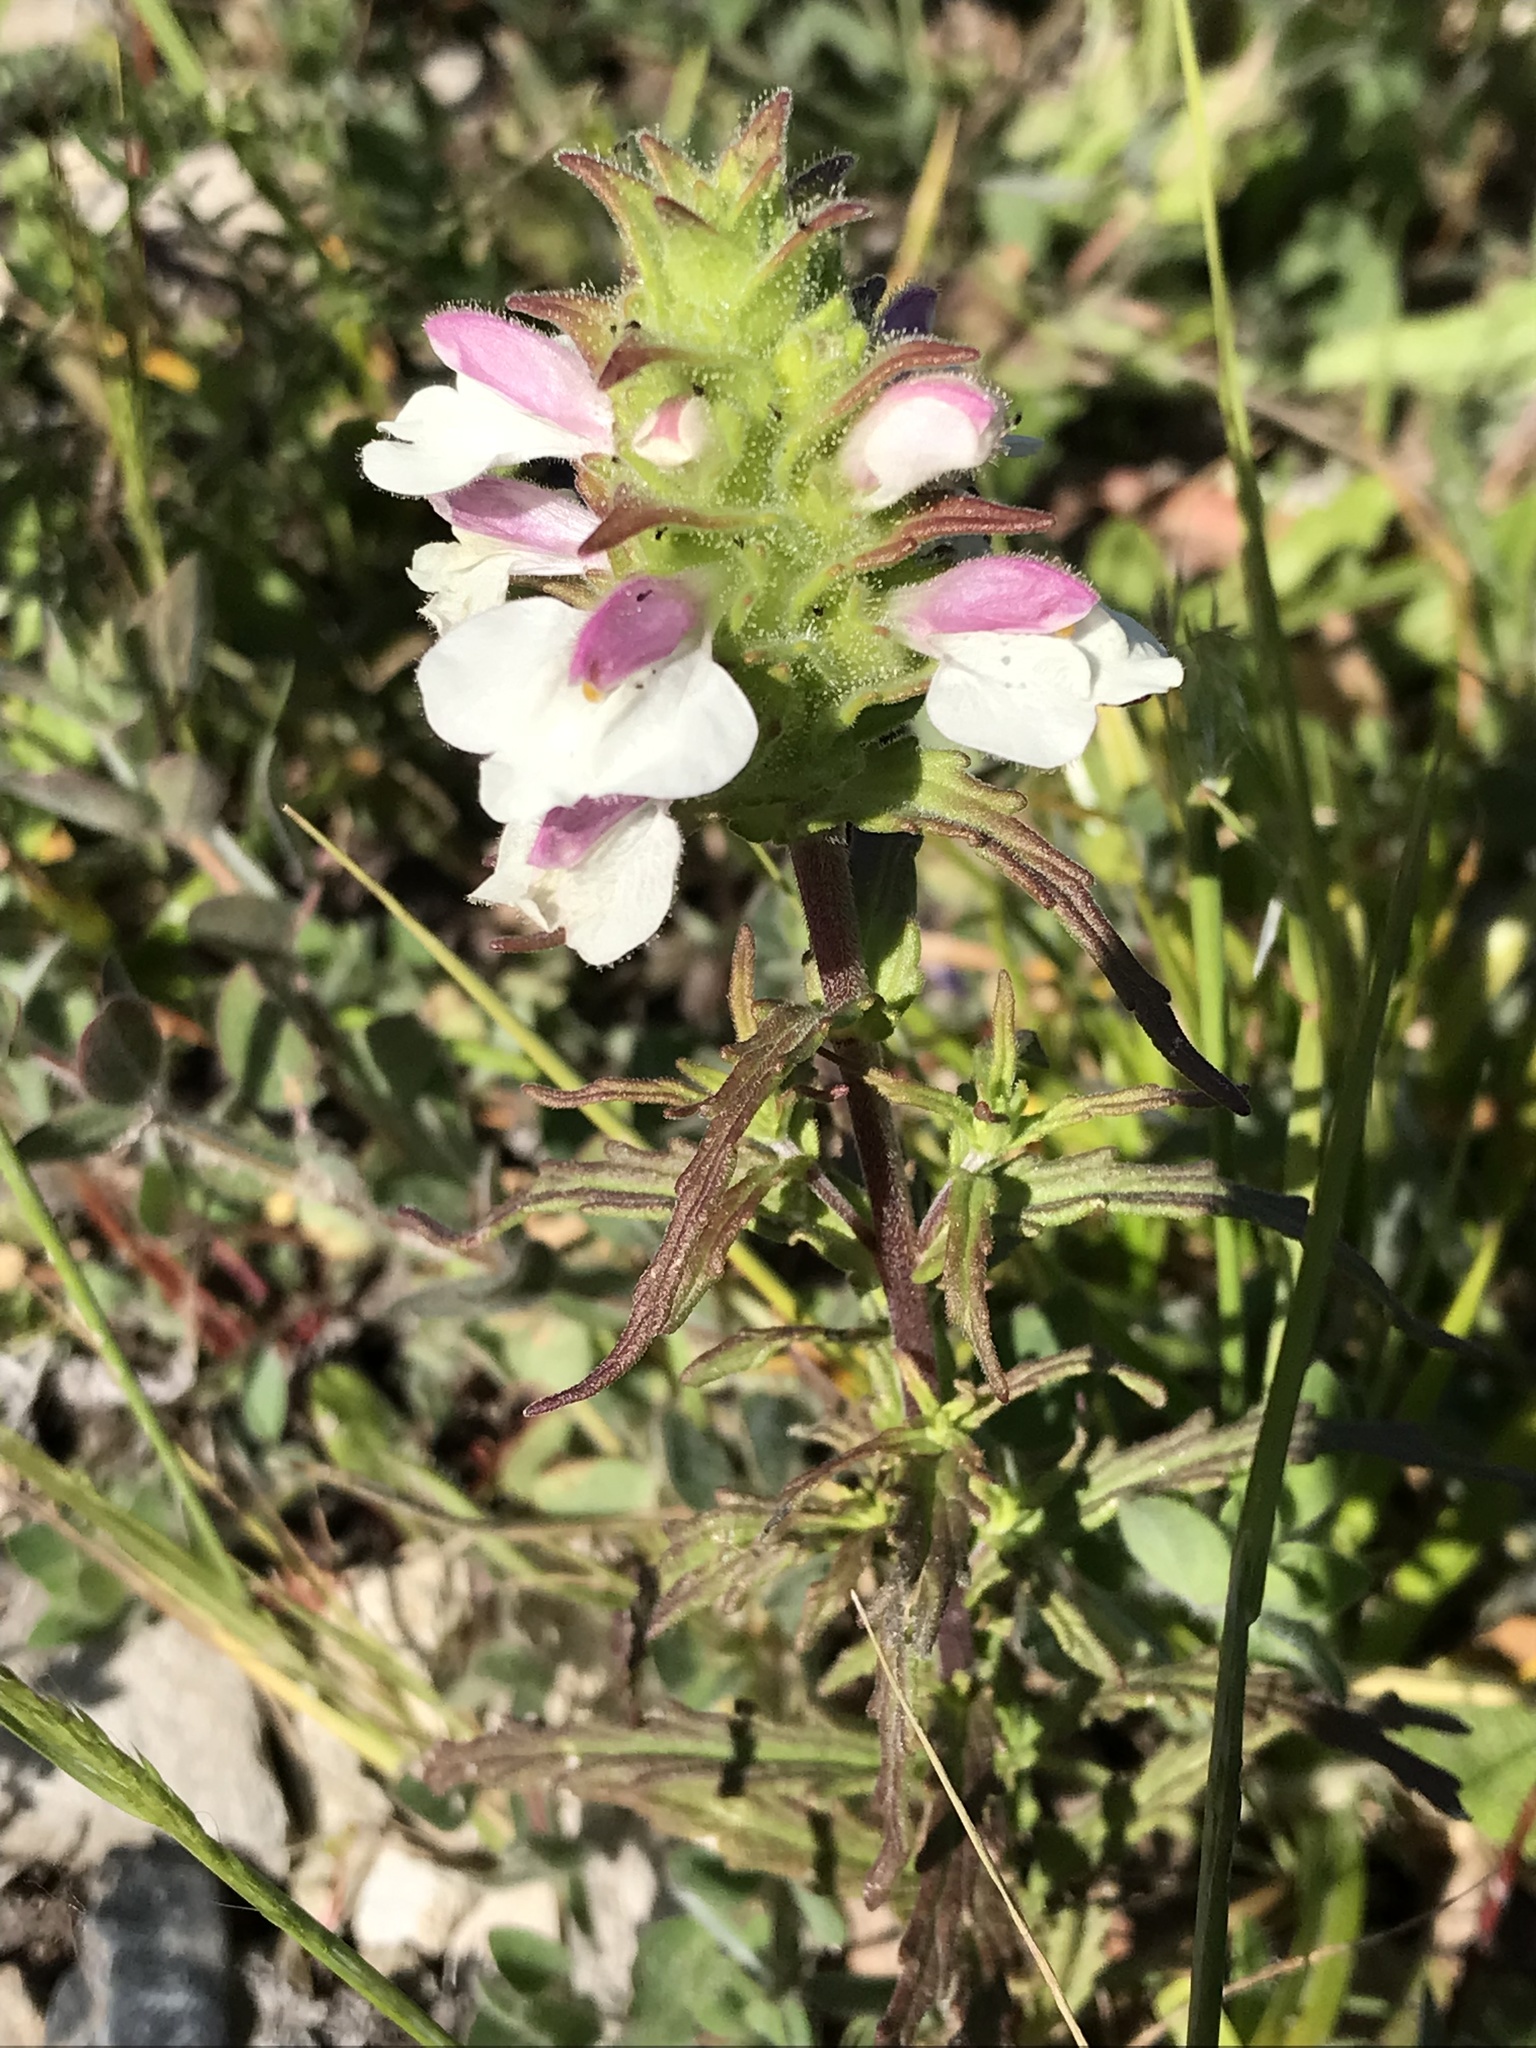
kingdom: Plantae
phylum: Tracheophyta
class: Magnoliopsida
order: Lamiales
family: Orobanchaceae
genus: Bellardia
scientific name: Bellardia trixago
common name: Mediterranean lineseed
